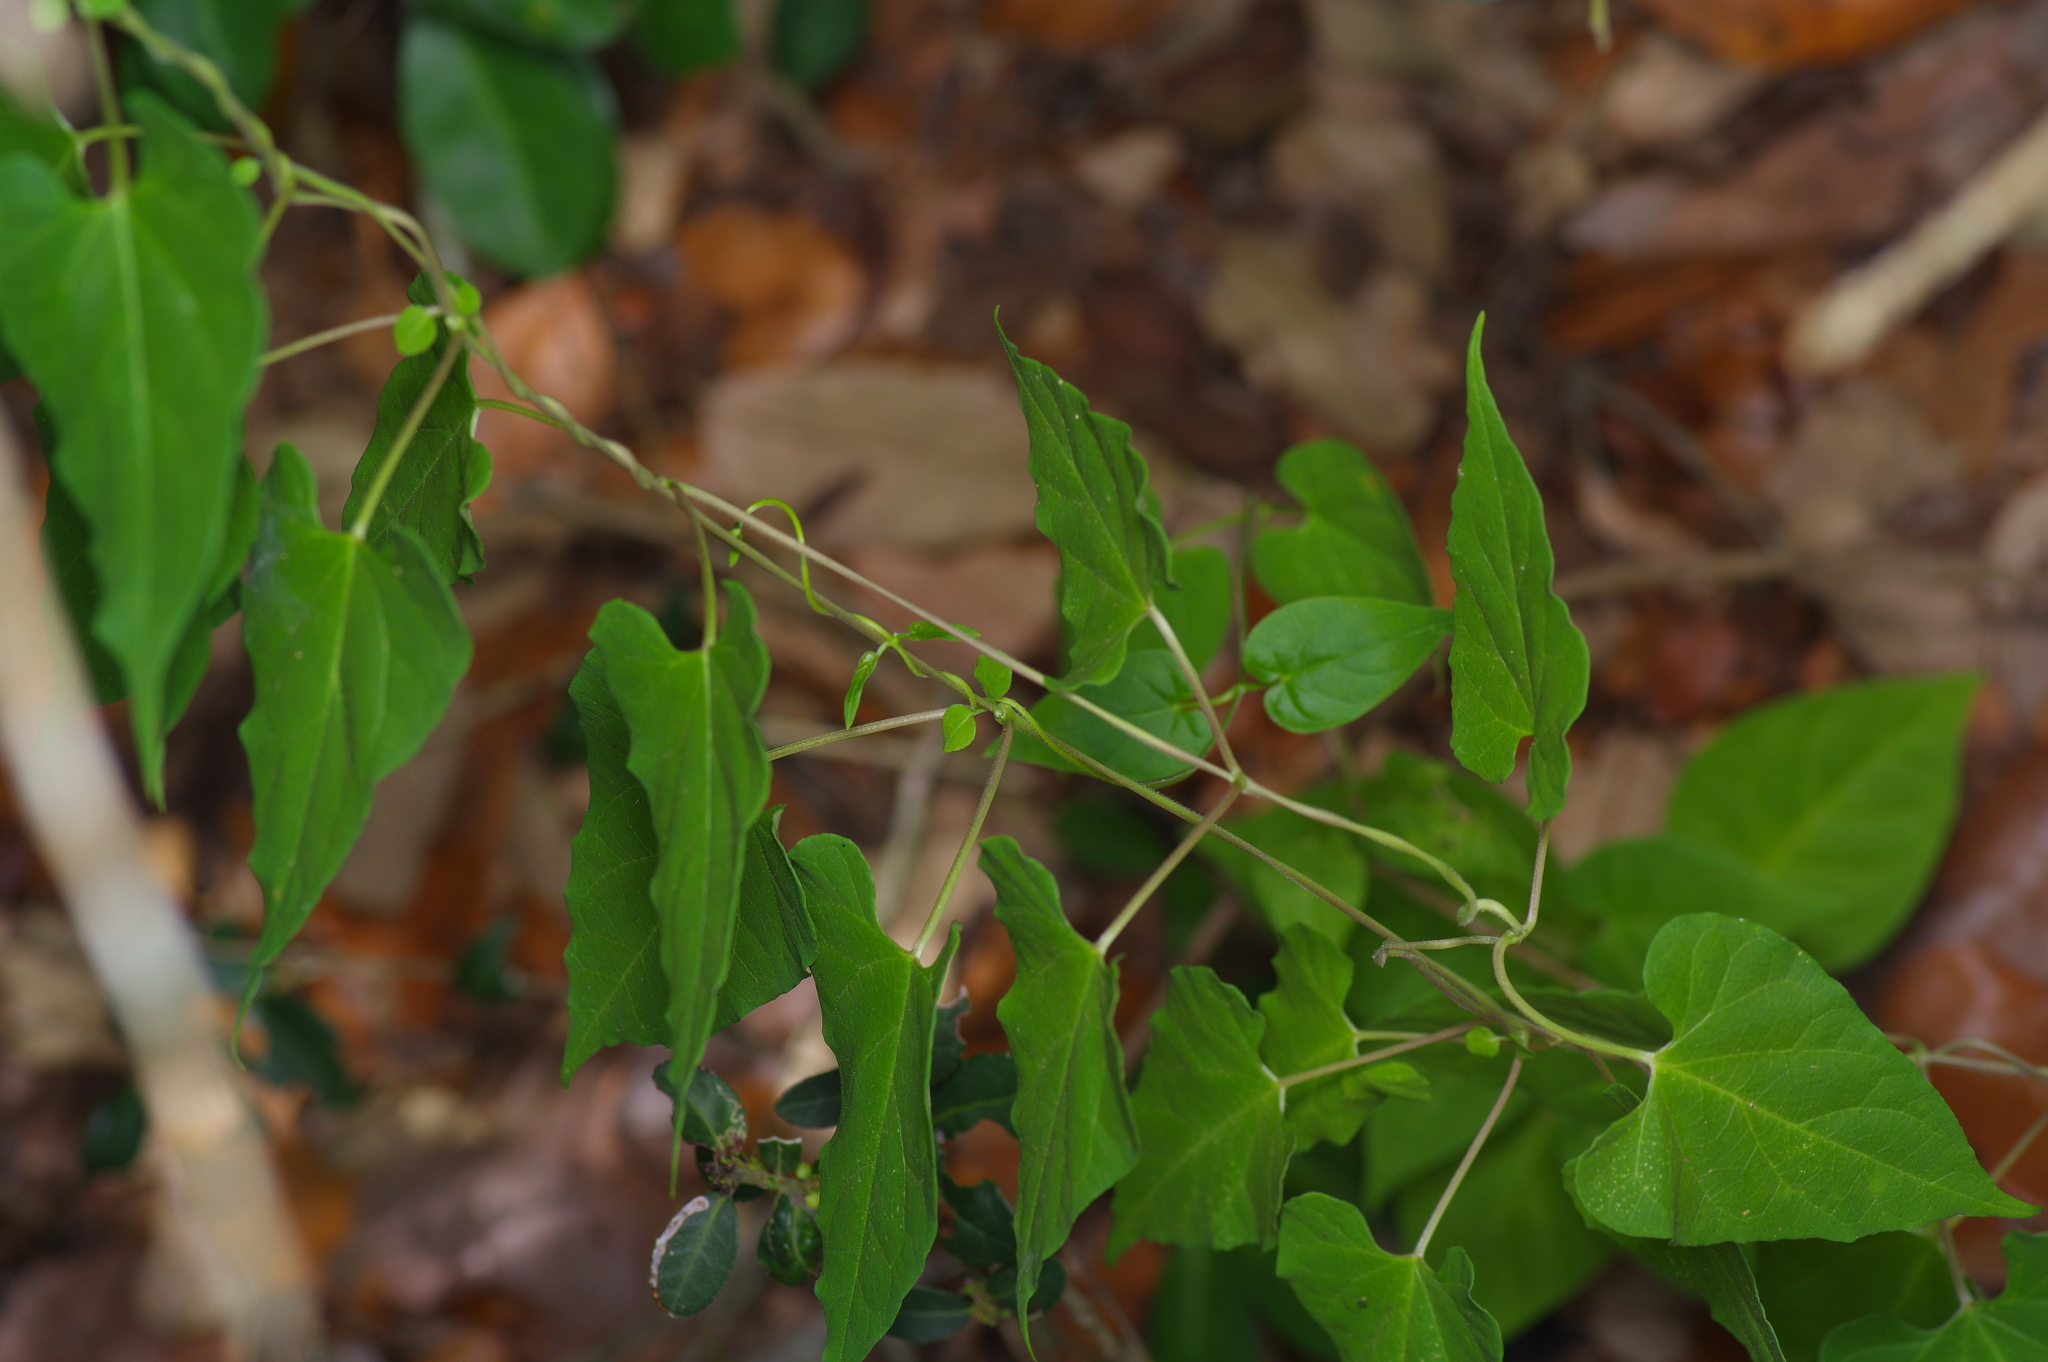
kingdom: Plantae
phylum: Tracheophyta
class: Magnoliopsida
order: Gentianales
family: Apocynaceae
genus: Cynanchum
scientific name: Cynanchum racemosum
